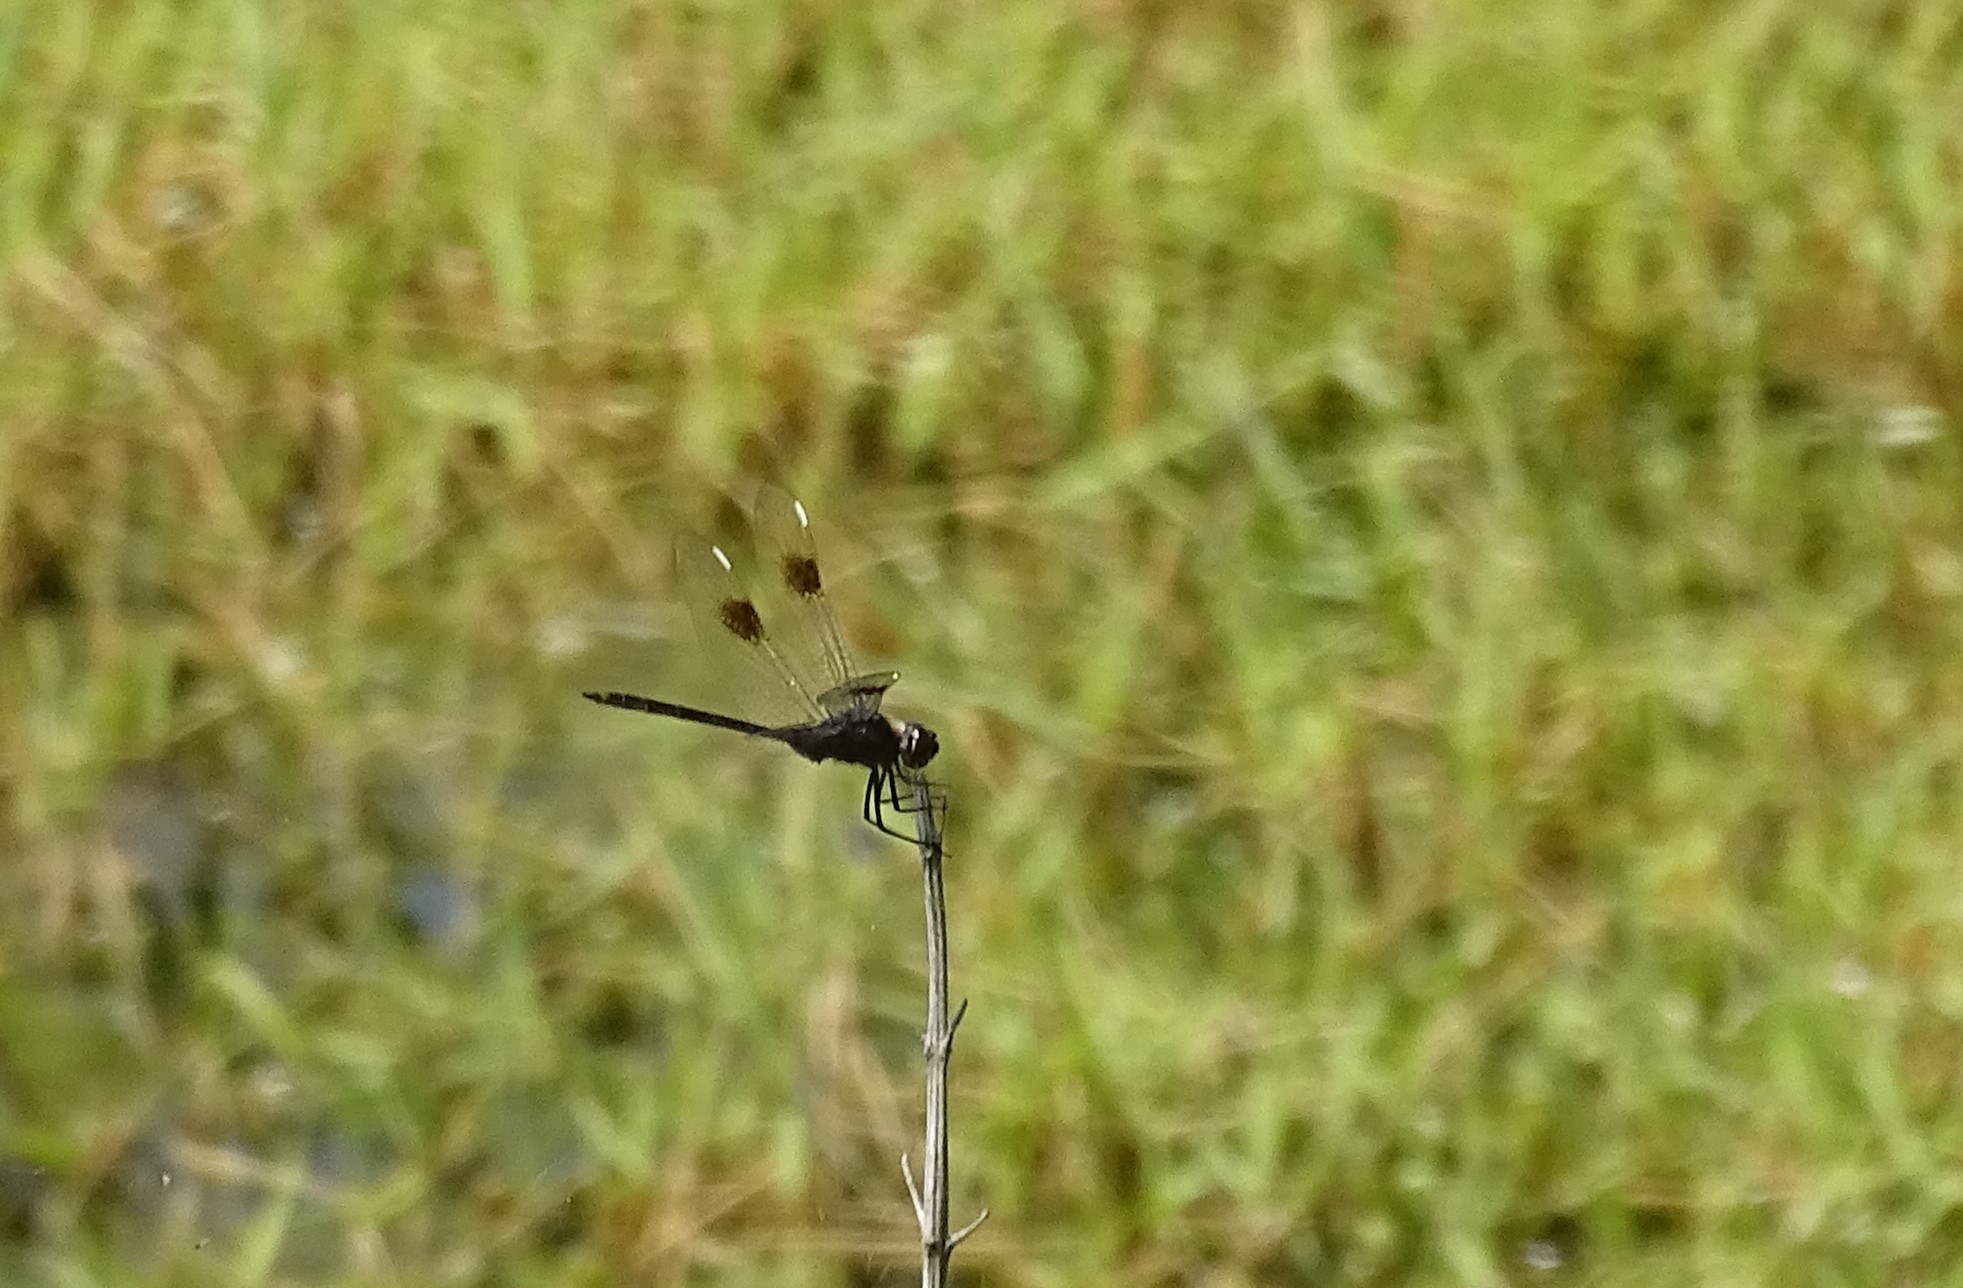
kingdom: Animalia
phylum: Arthropoda
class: Insecta
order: Odonata
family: Libellulidae
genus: Brachymesia
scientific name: Brachymesia gravida
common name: Four-spotted pennant
